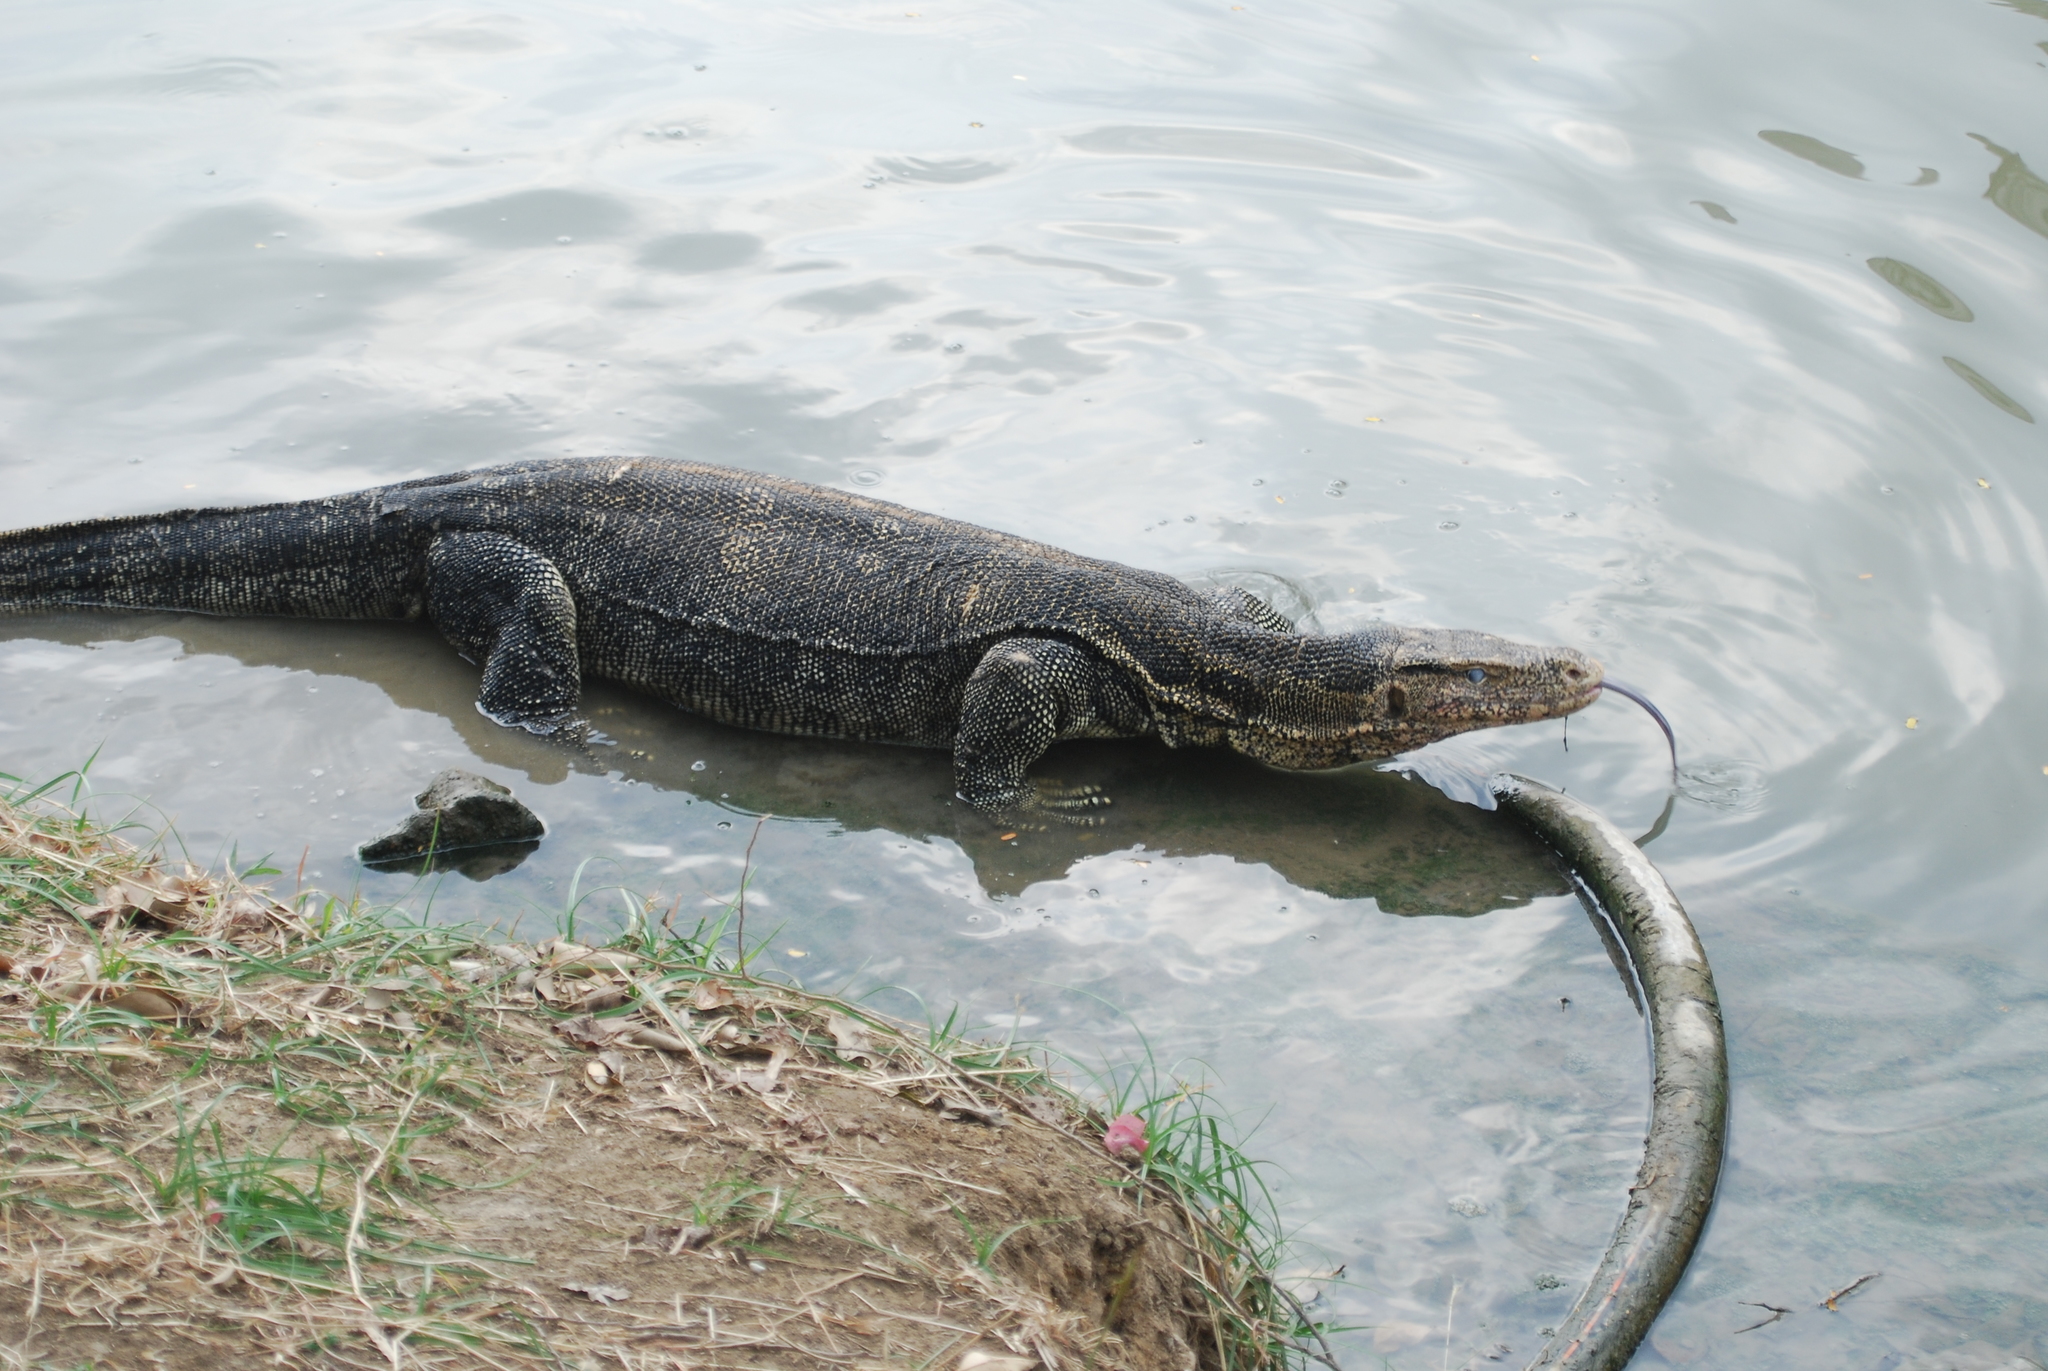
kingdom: Animalia
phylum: Chordata
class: Squamata
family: Varanidae
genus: Varanus
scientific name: Varanus salvator
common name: Common water monitor
